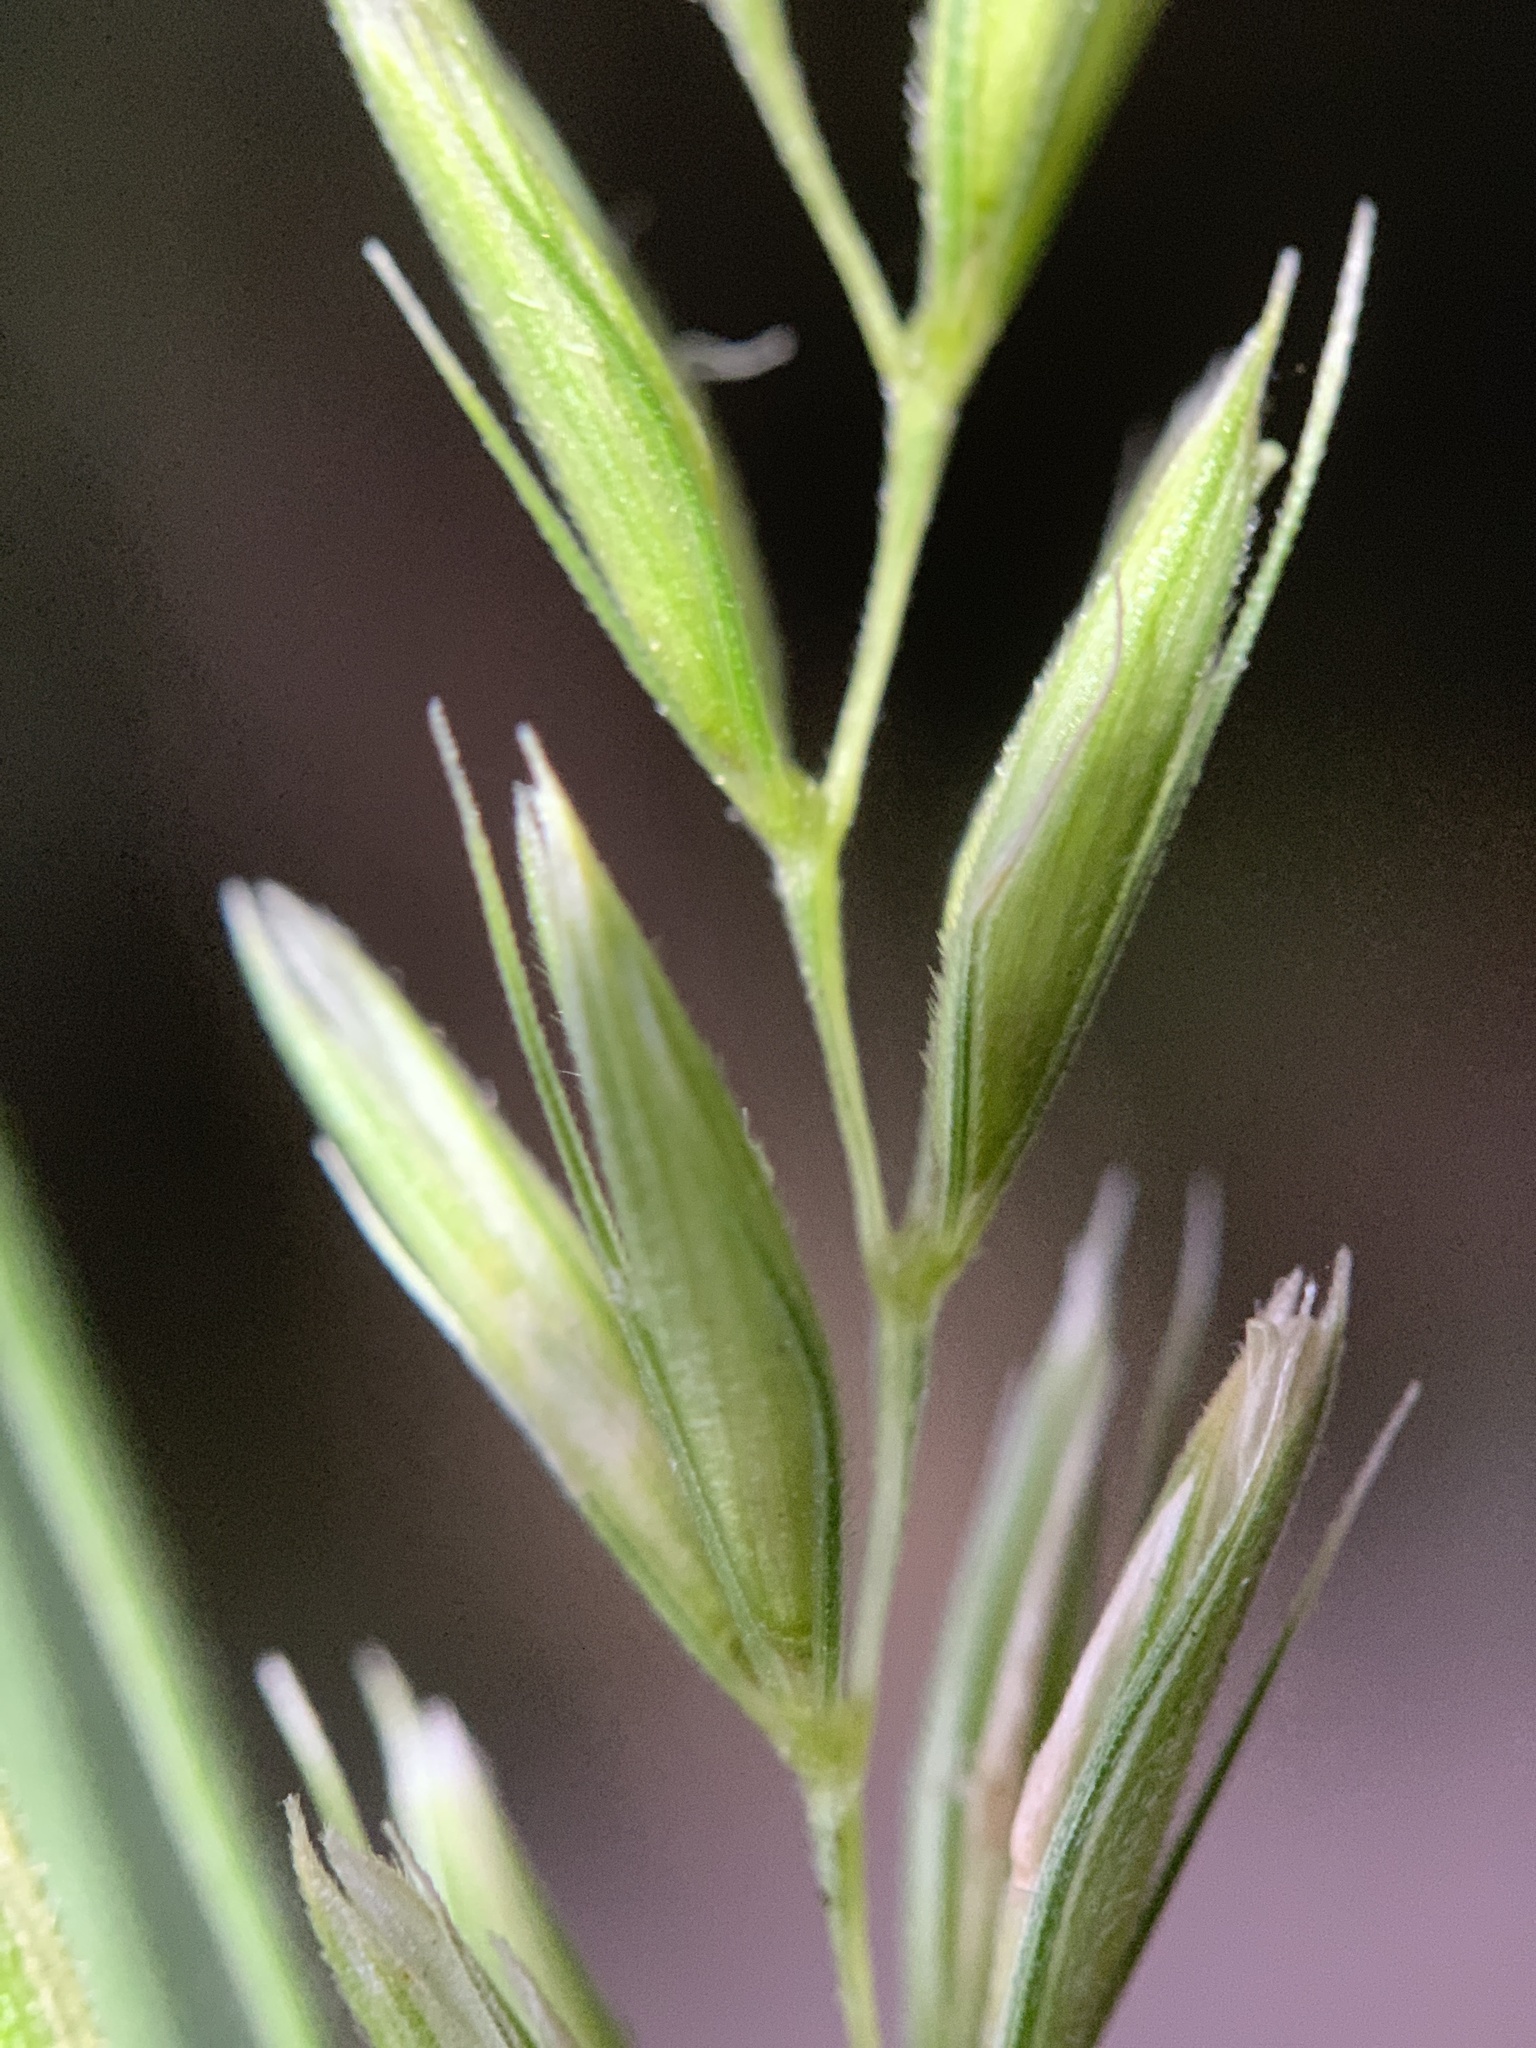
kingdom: Plantae
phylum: Tracheophyta
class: Liliopsida
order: Poales
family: Poaceae
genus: Leymus
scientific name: Leymus triticoides
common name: Beardless wild rye
